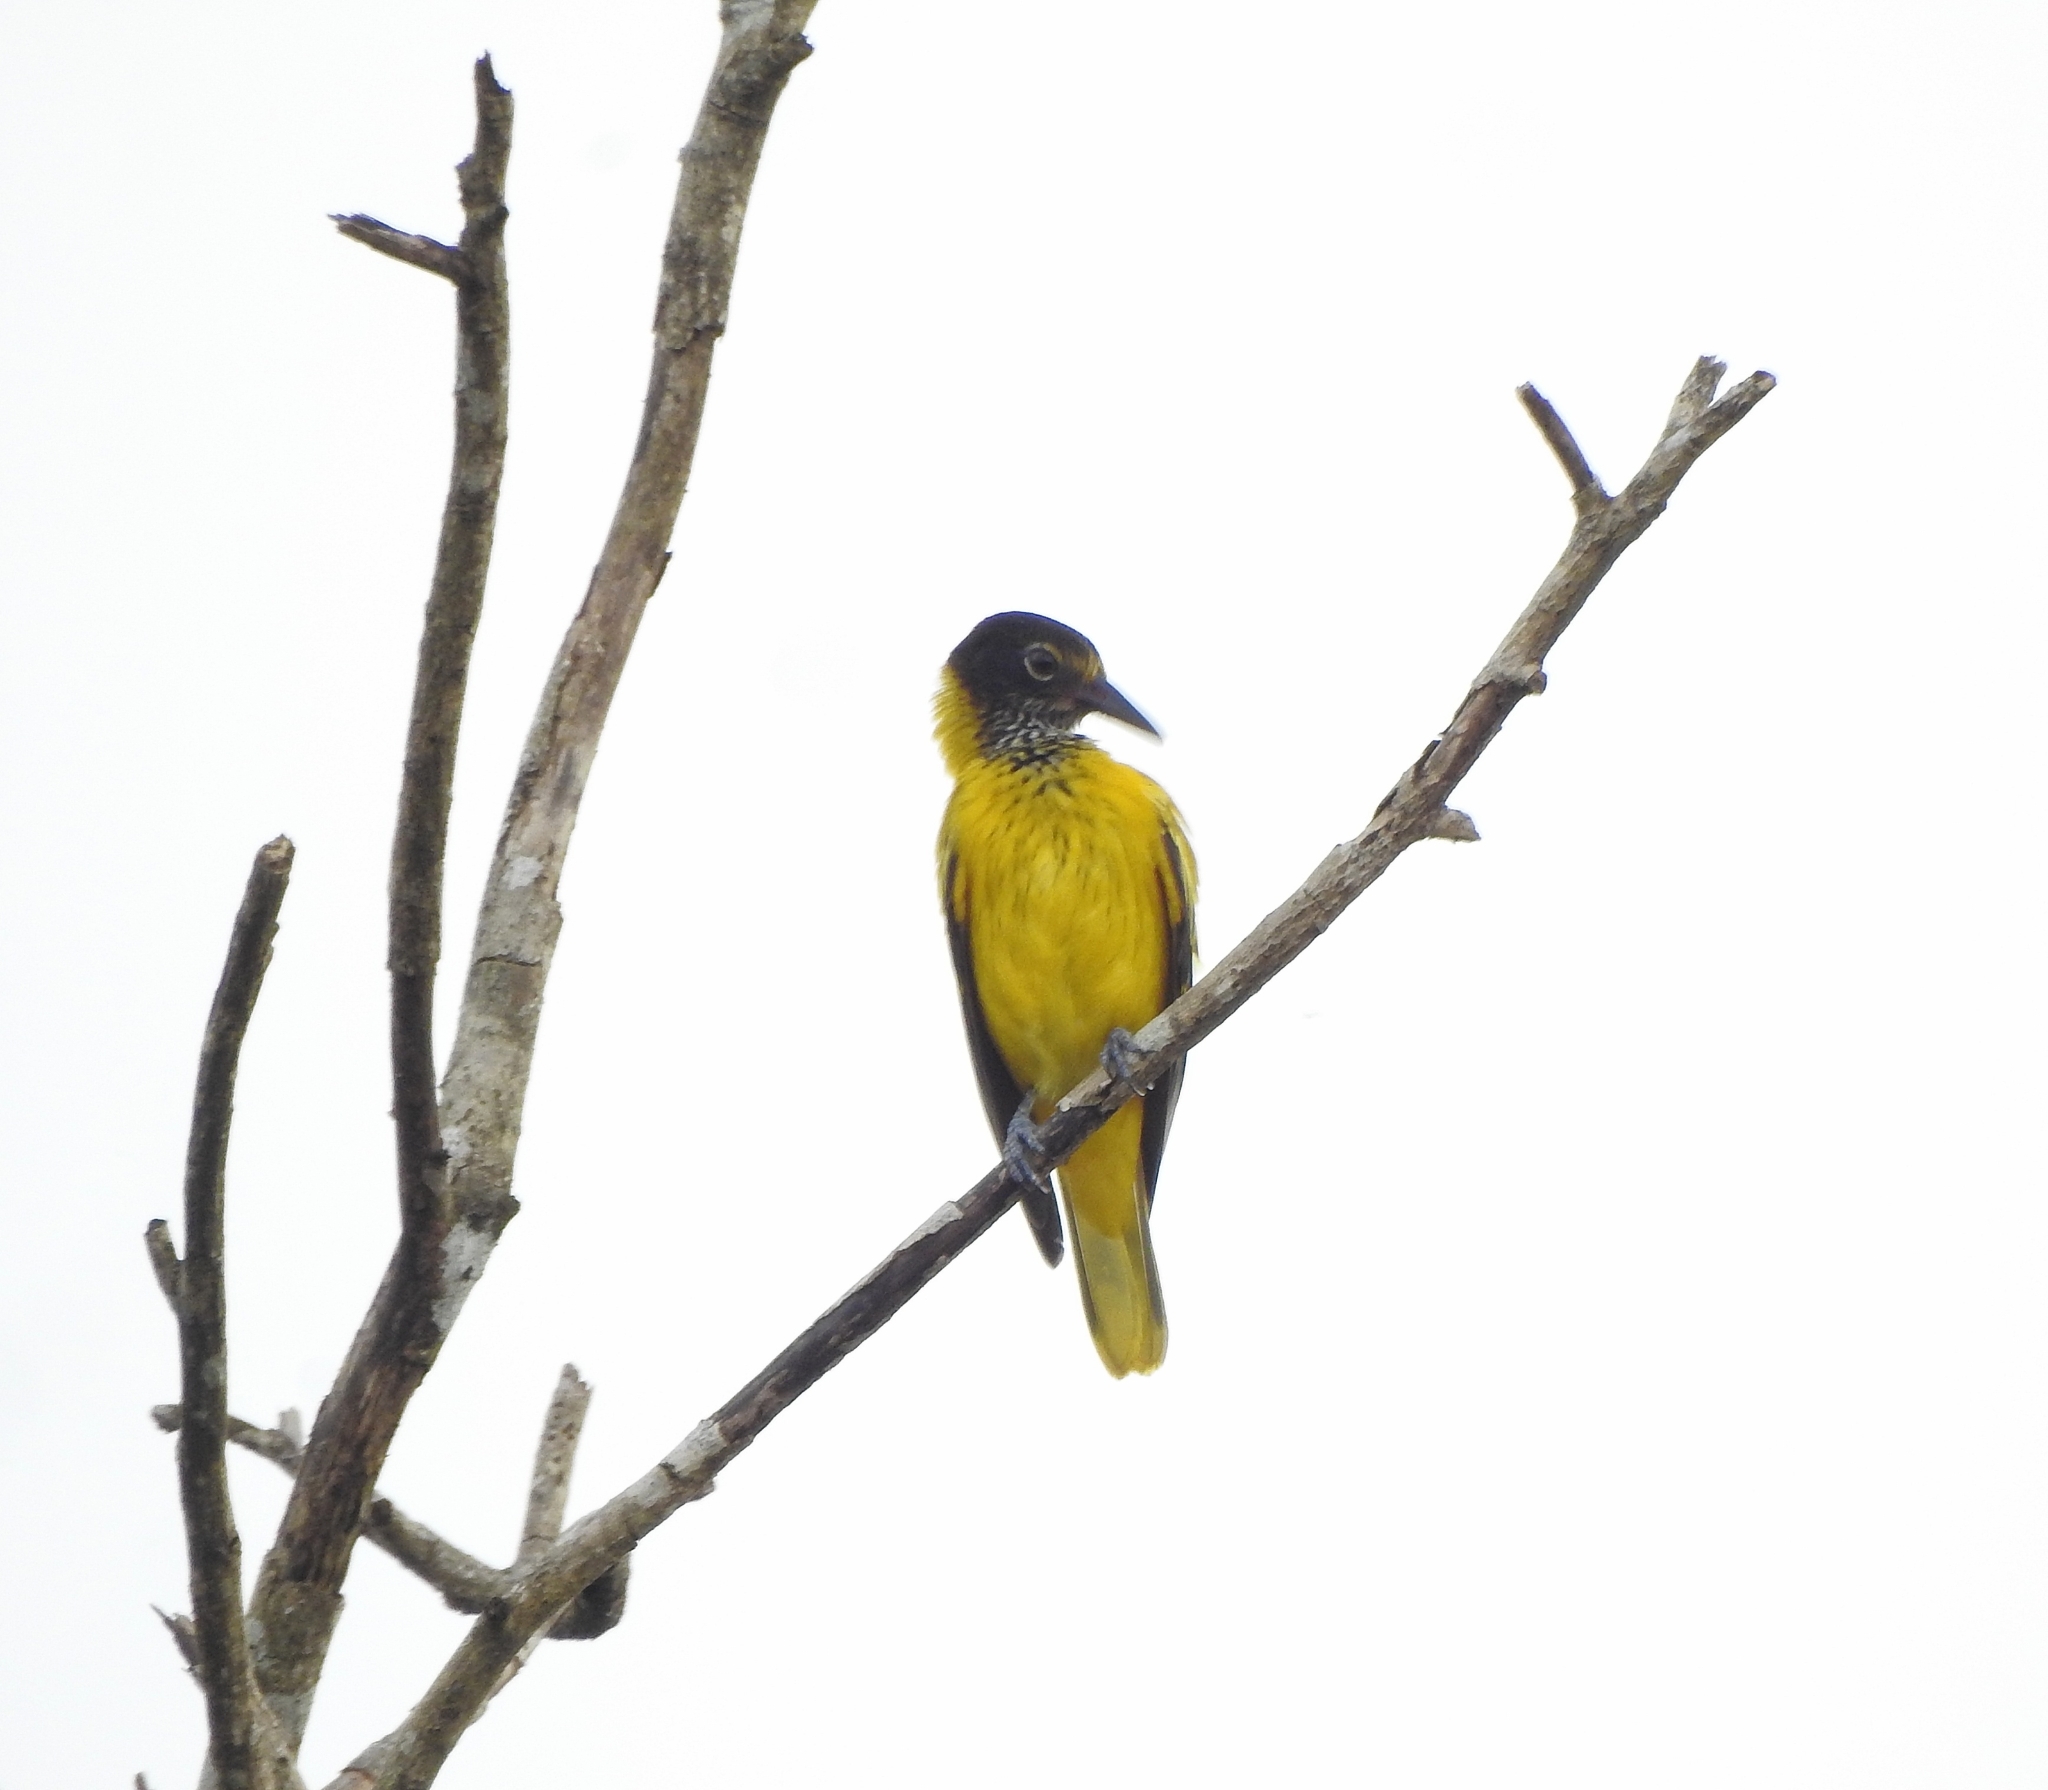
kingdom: Animalia
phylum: Chordata
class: Aves
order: Passeriformes
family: Oriolidae
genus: Oriolus
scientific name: Oriolus xanthornus
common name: Black-hooded oriole
